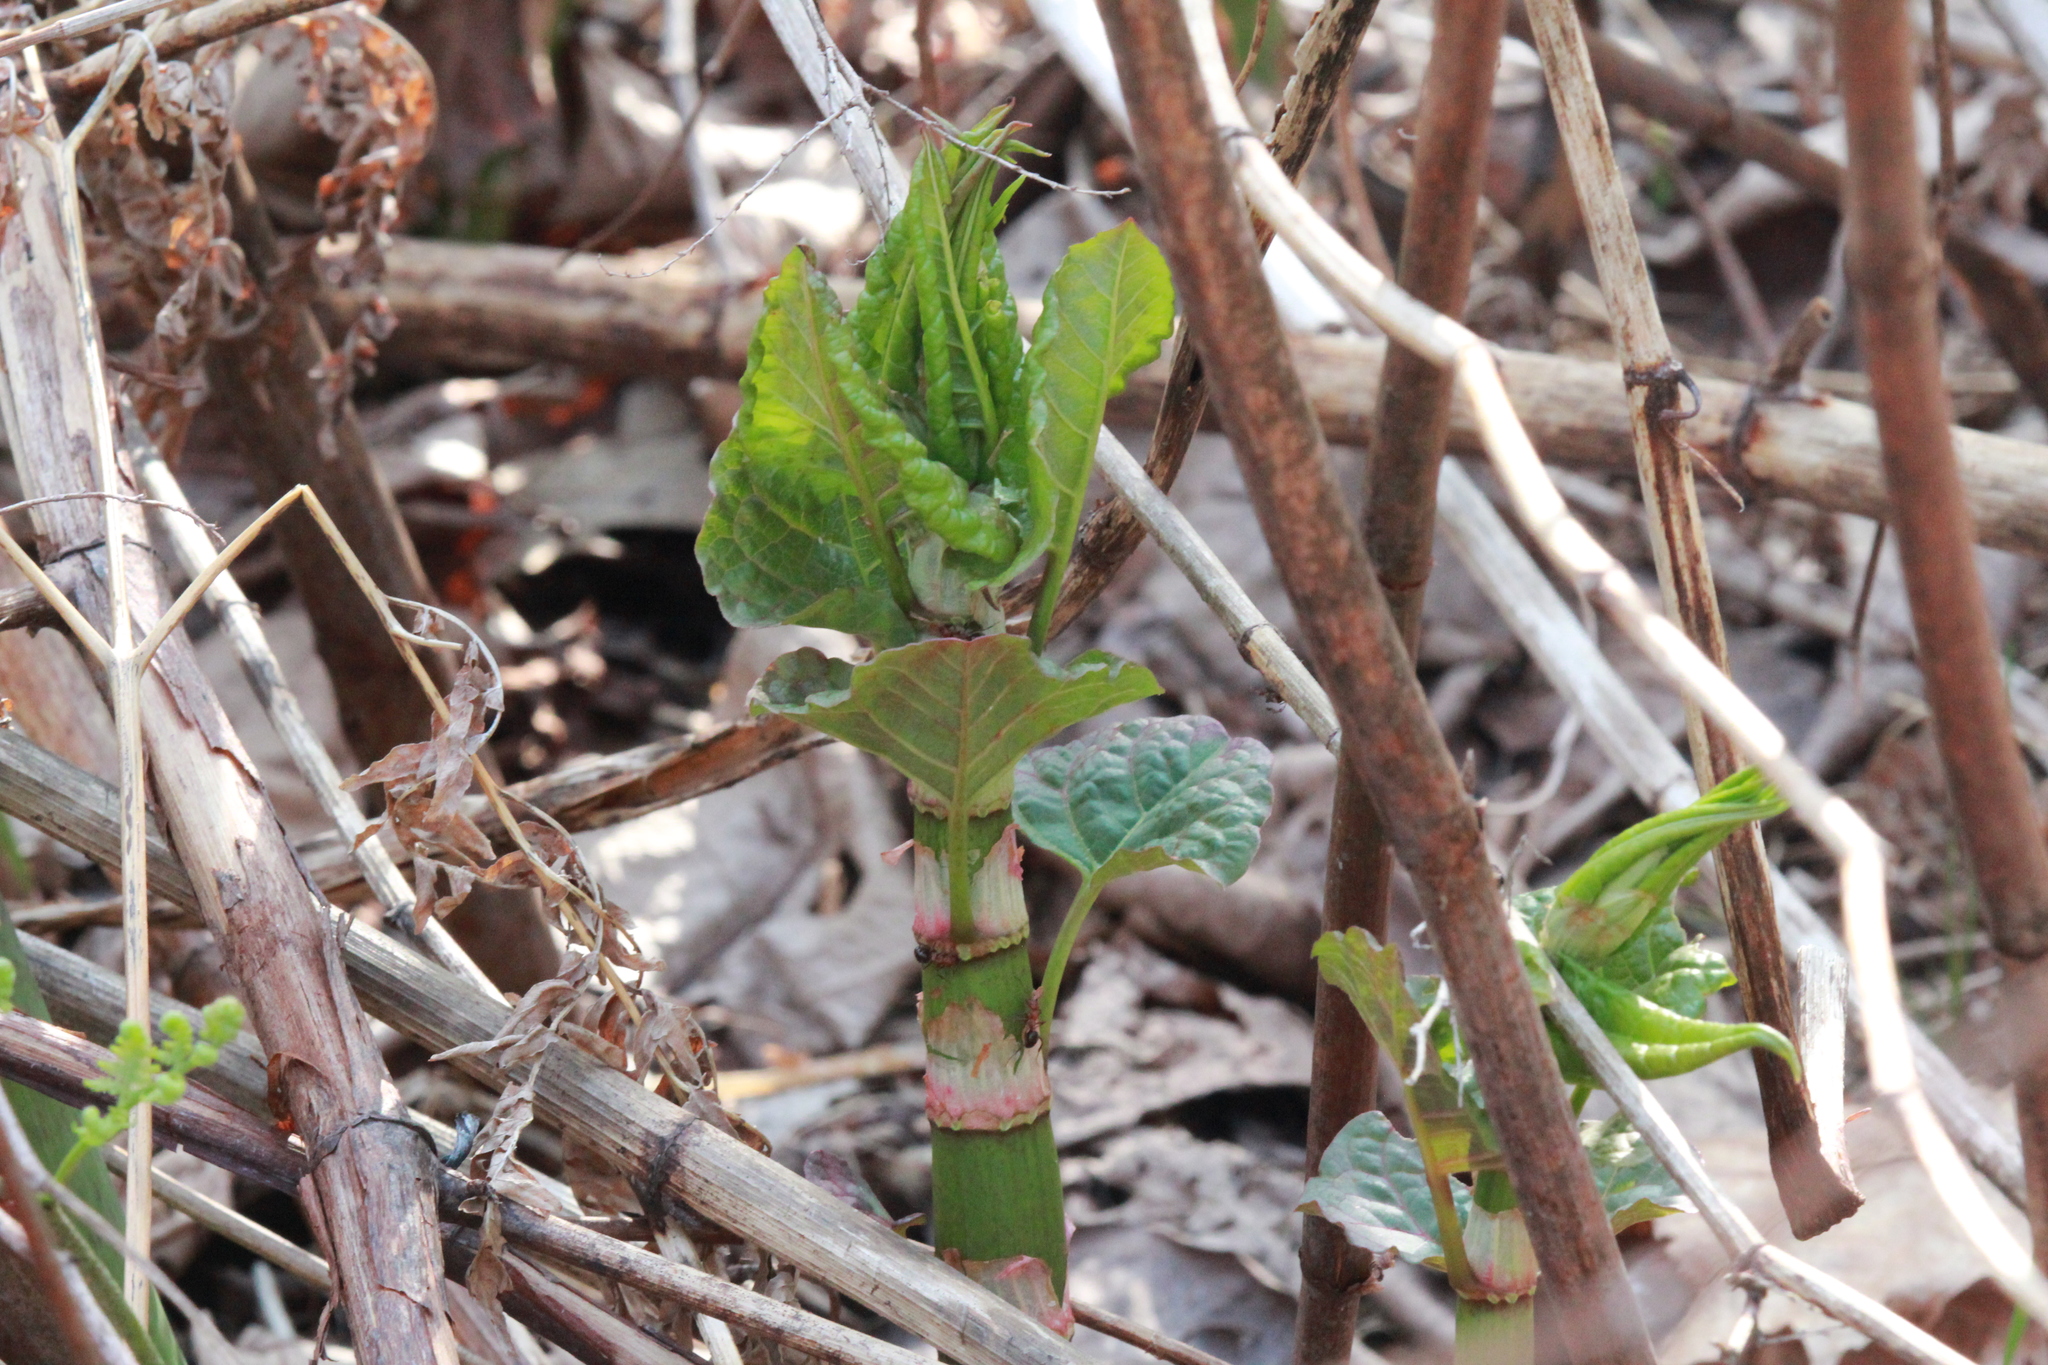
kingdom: Plantae
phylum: Tracheophyta
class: Magnoliopsida
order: Caryophyllales
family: Polygonaceae
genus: Reynoutria
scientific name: Reynoutria japonica
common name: Japanese knotweed
